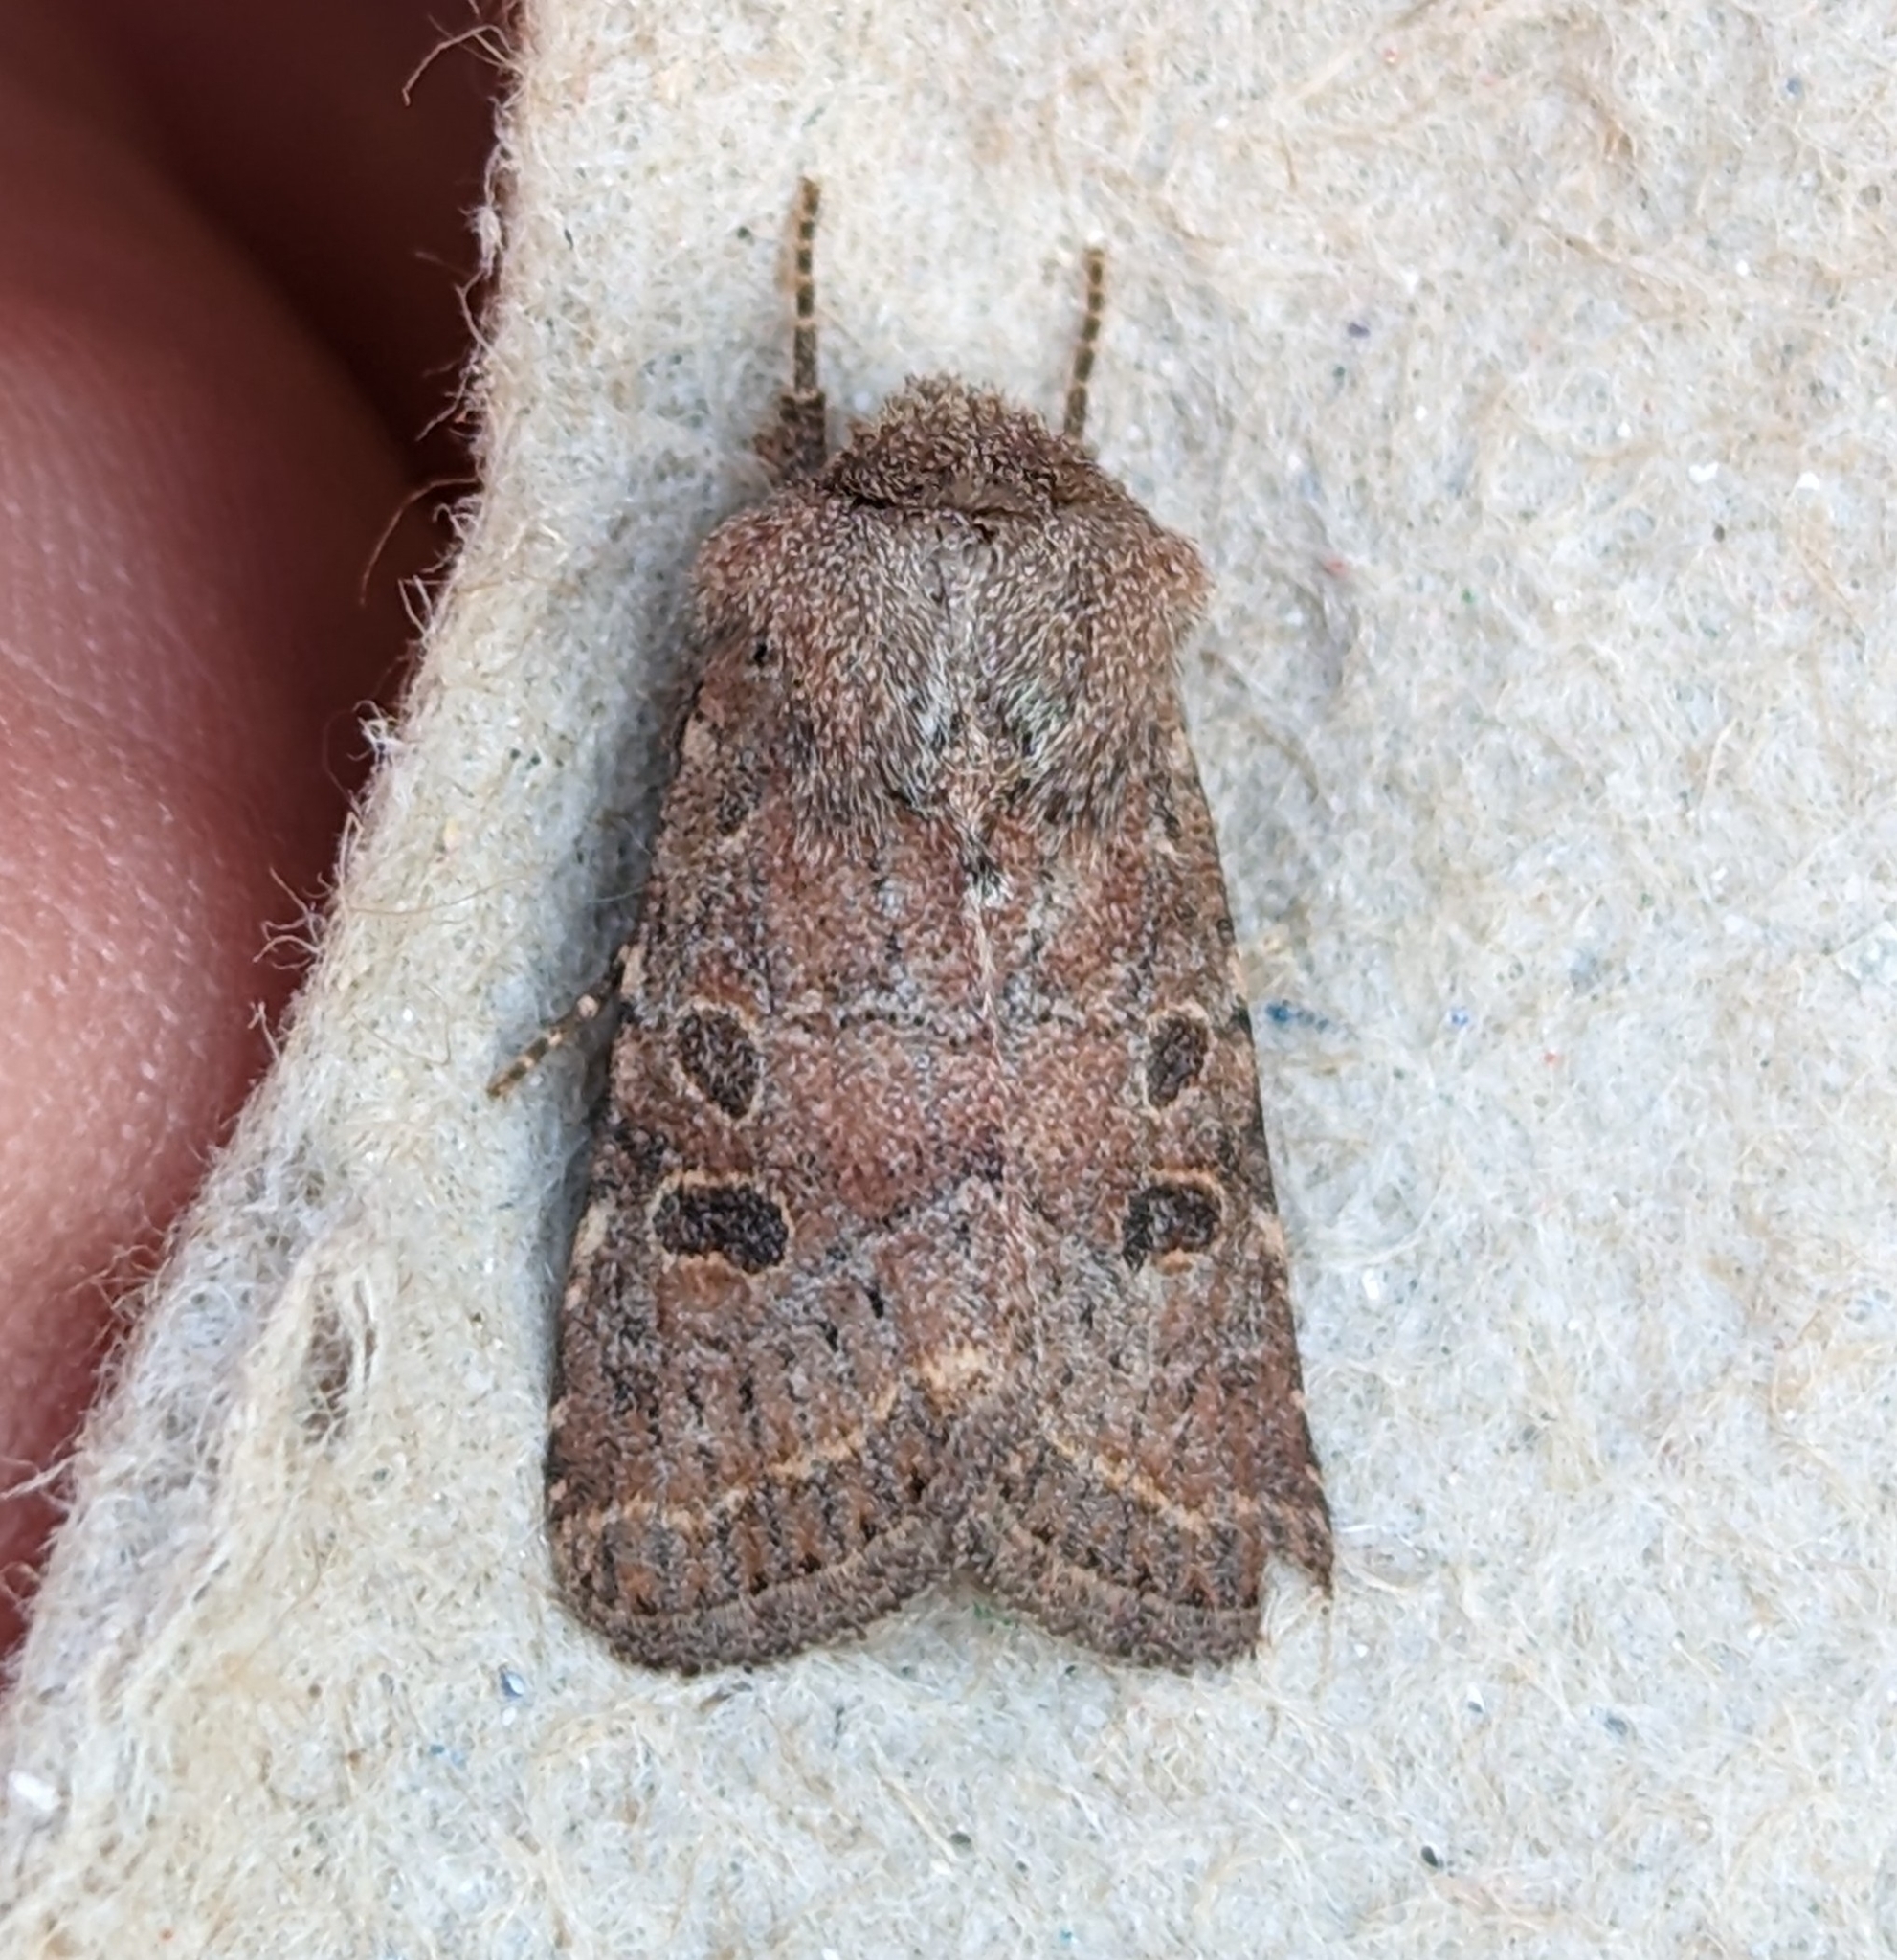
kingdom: Animalia
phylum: Arthropoda
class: Insecta
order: Lepidoptera
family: Noctuidae
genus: Trichopolia
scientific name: Trichopolia
